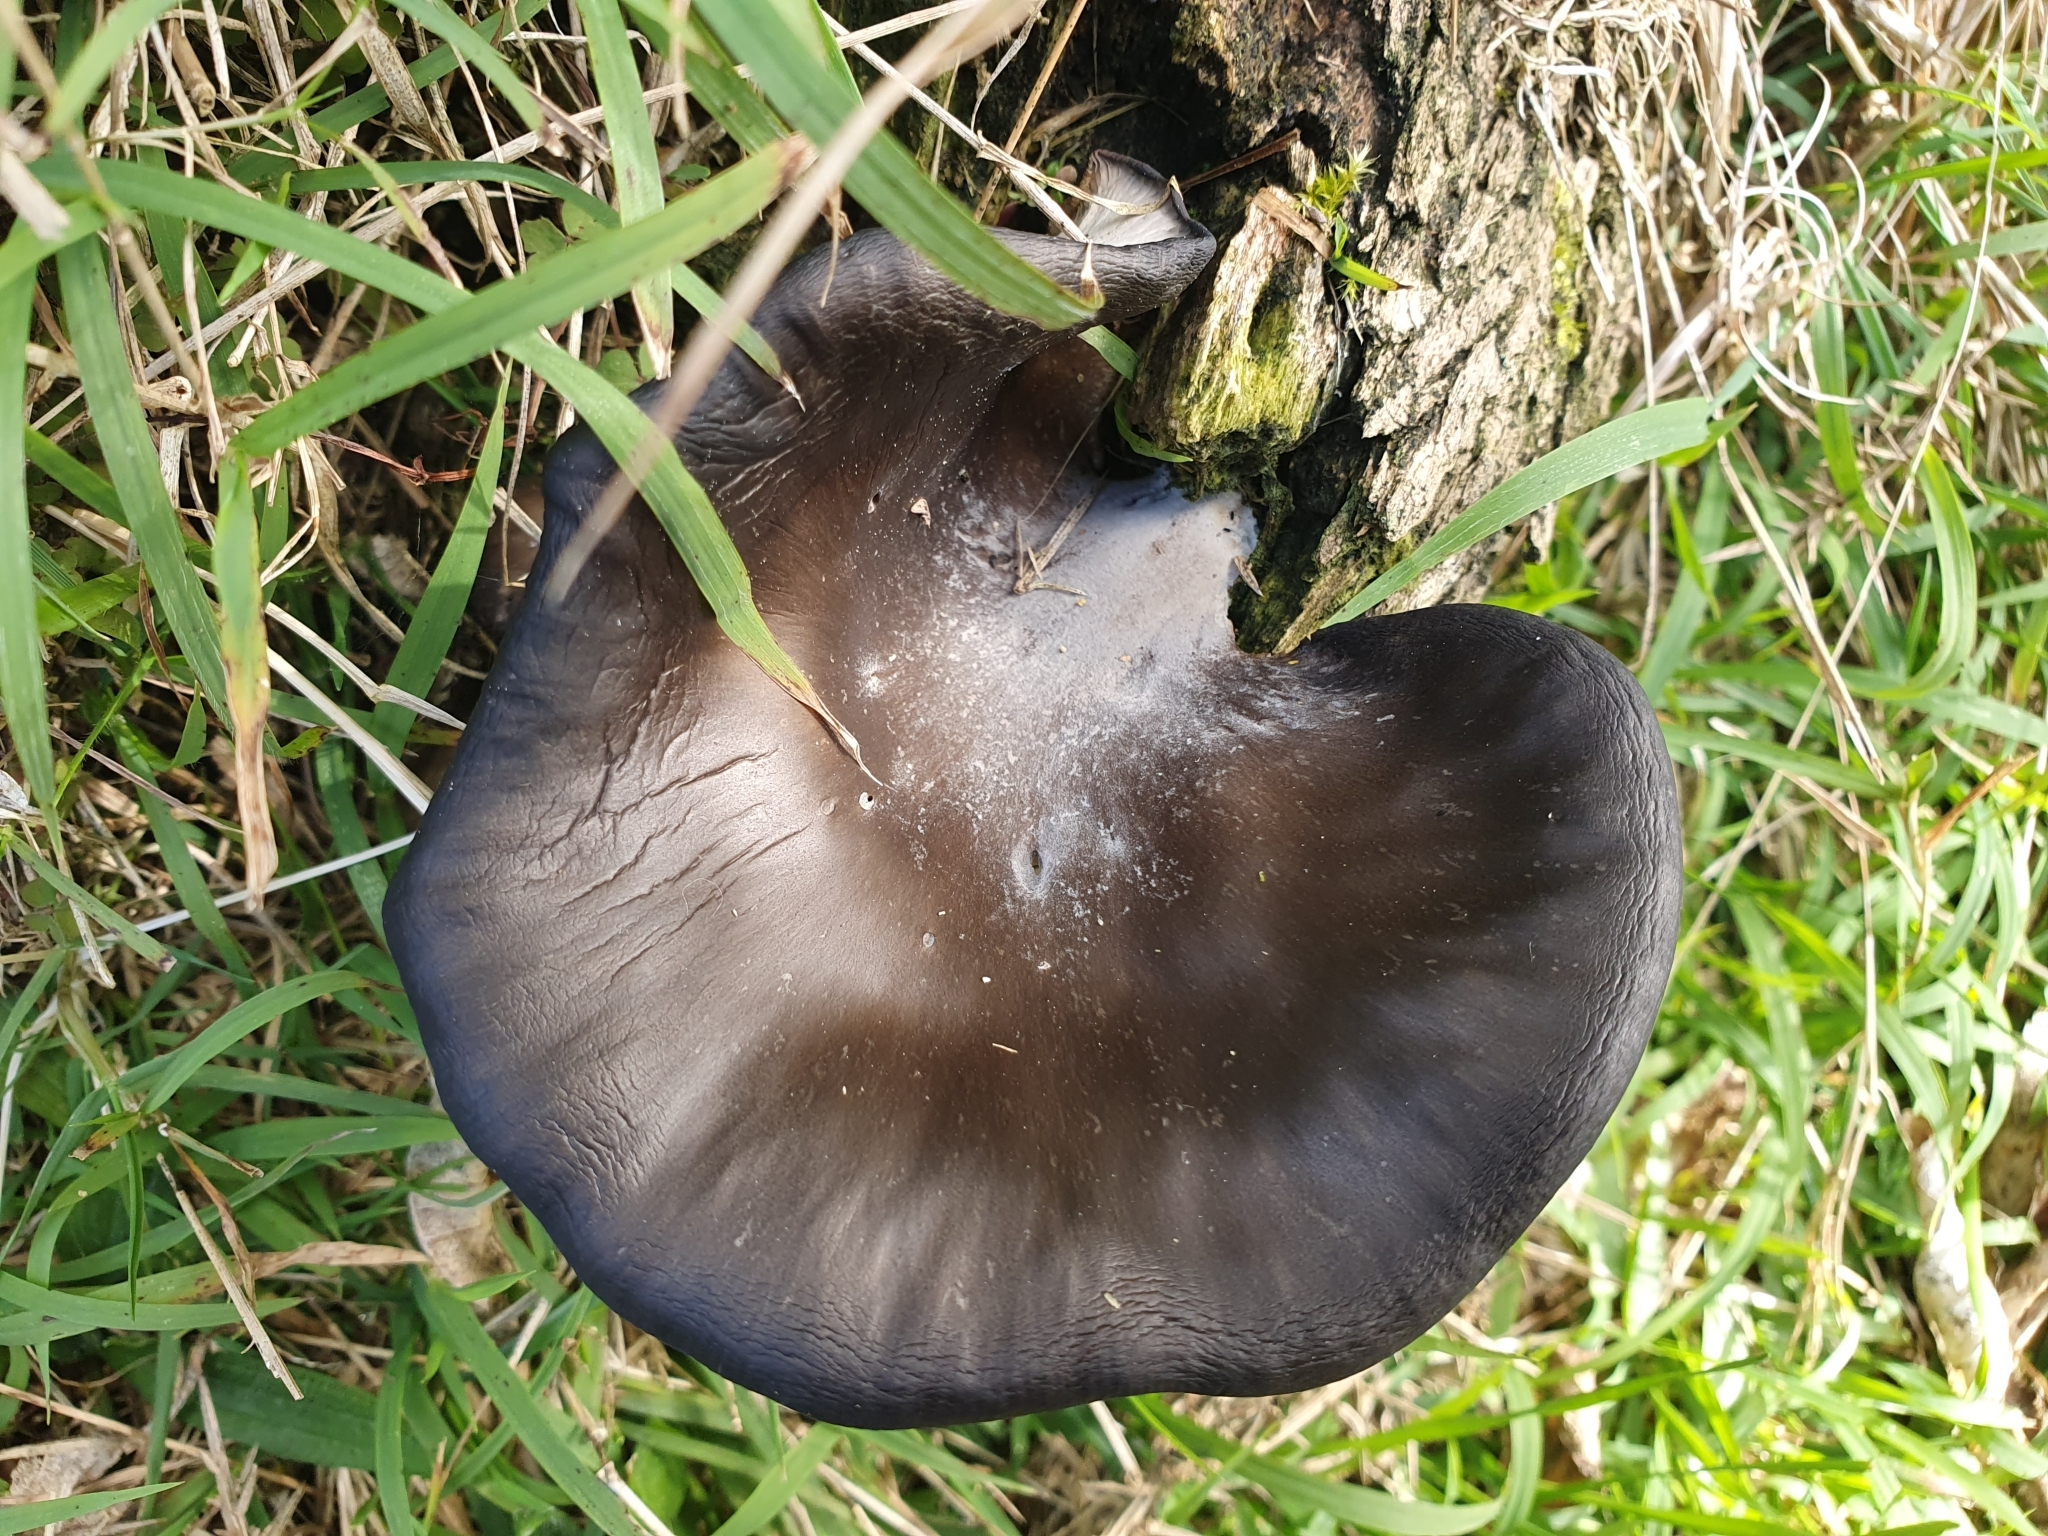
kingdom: Fungi
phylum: Basidiomycota
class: Agaricomycetes
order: Agaricales
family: Pleurotaceae
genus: Pleurotus
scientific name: Pleurotus purpureo-olivaceus
